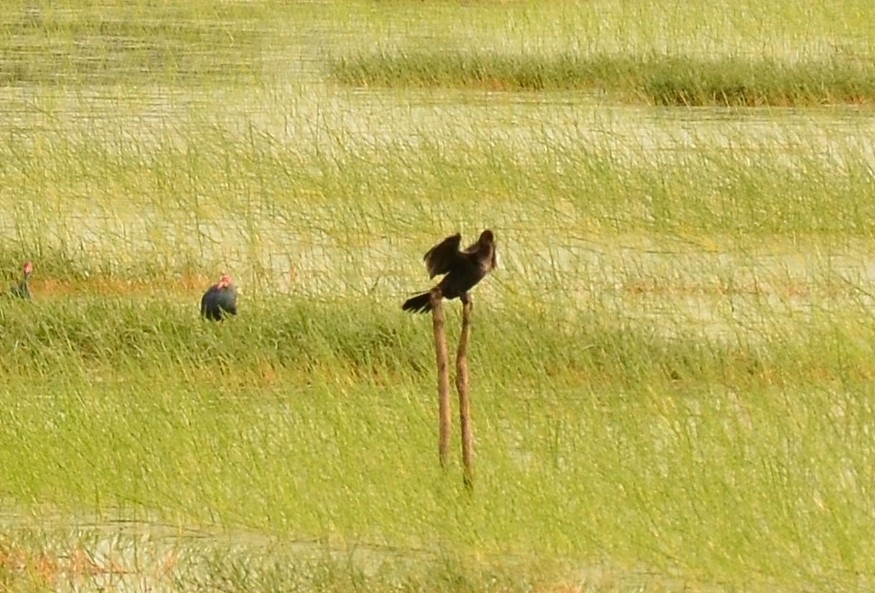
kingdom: Animalia
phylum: Chordata
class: Aves
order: Suliformes
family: Phalacrocoracidae
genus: Microcarbo
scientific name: Microcarbo niger
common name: Little cormorant
